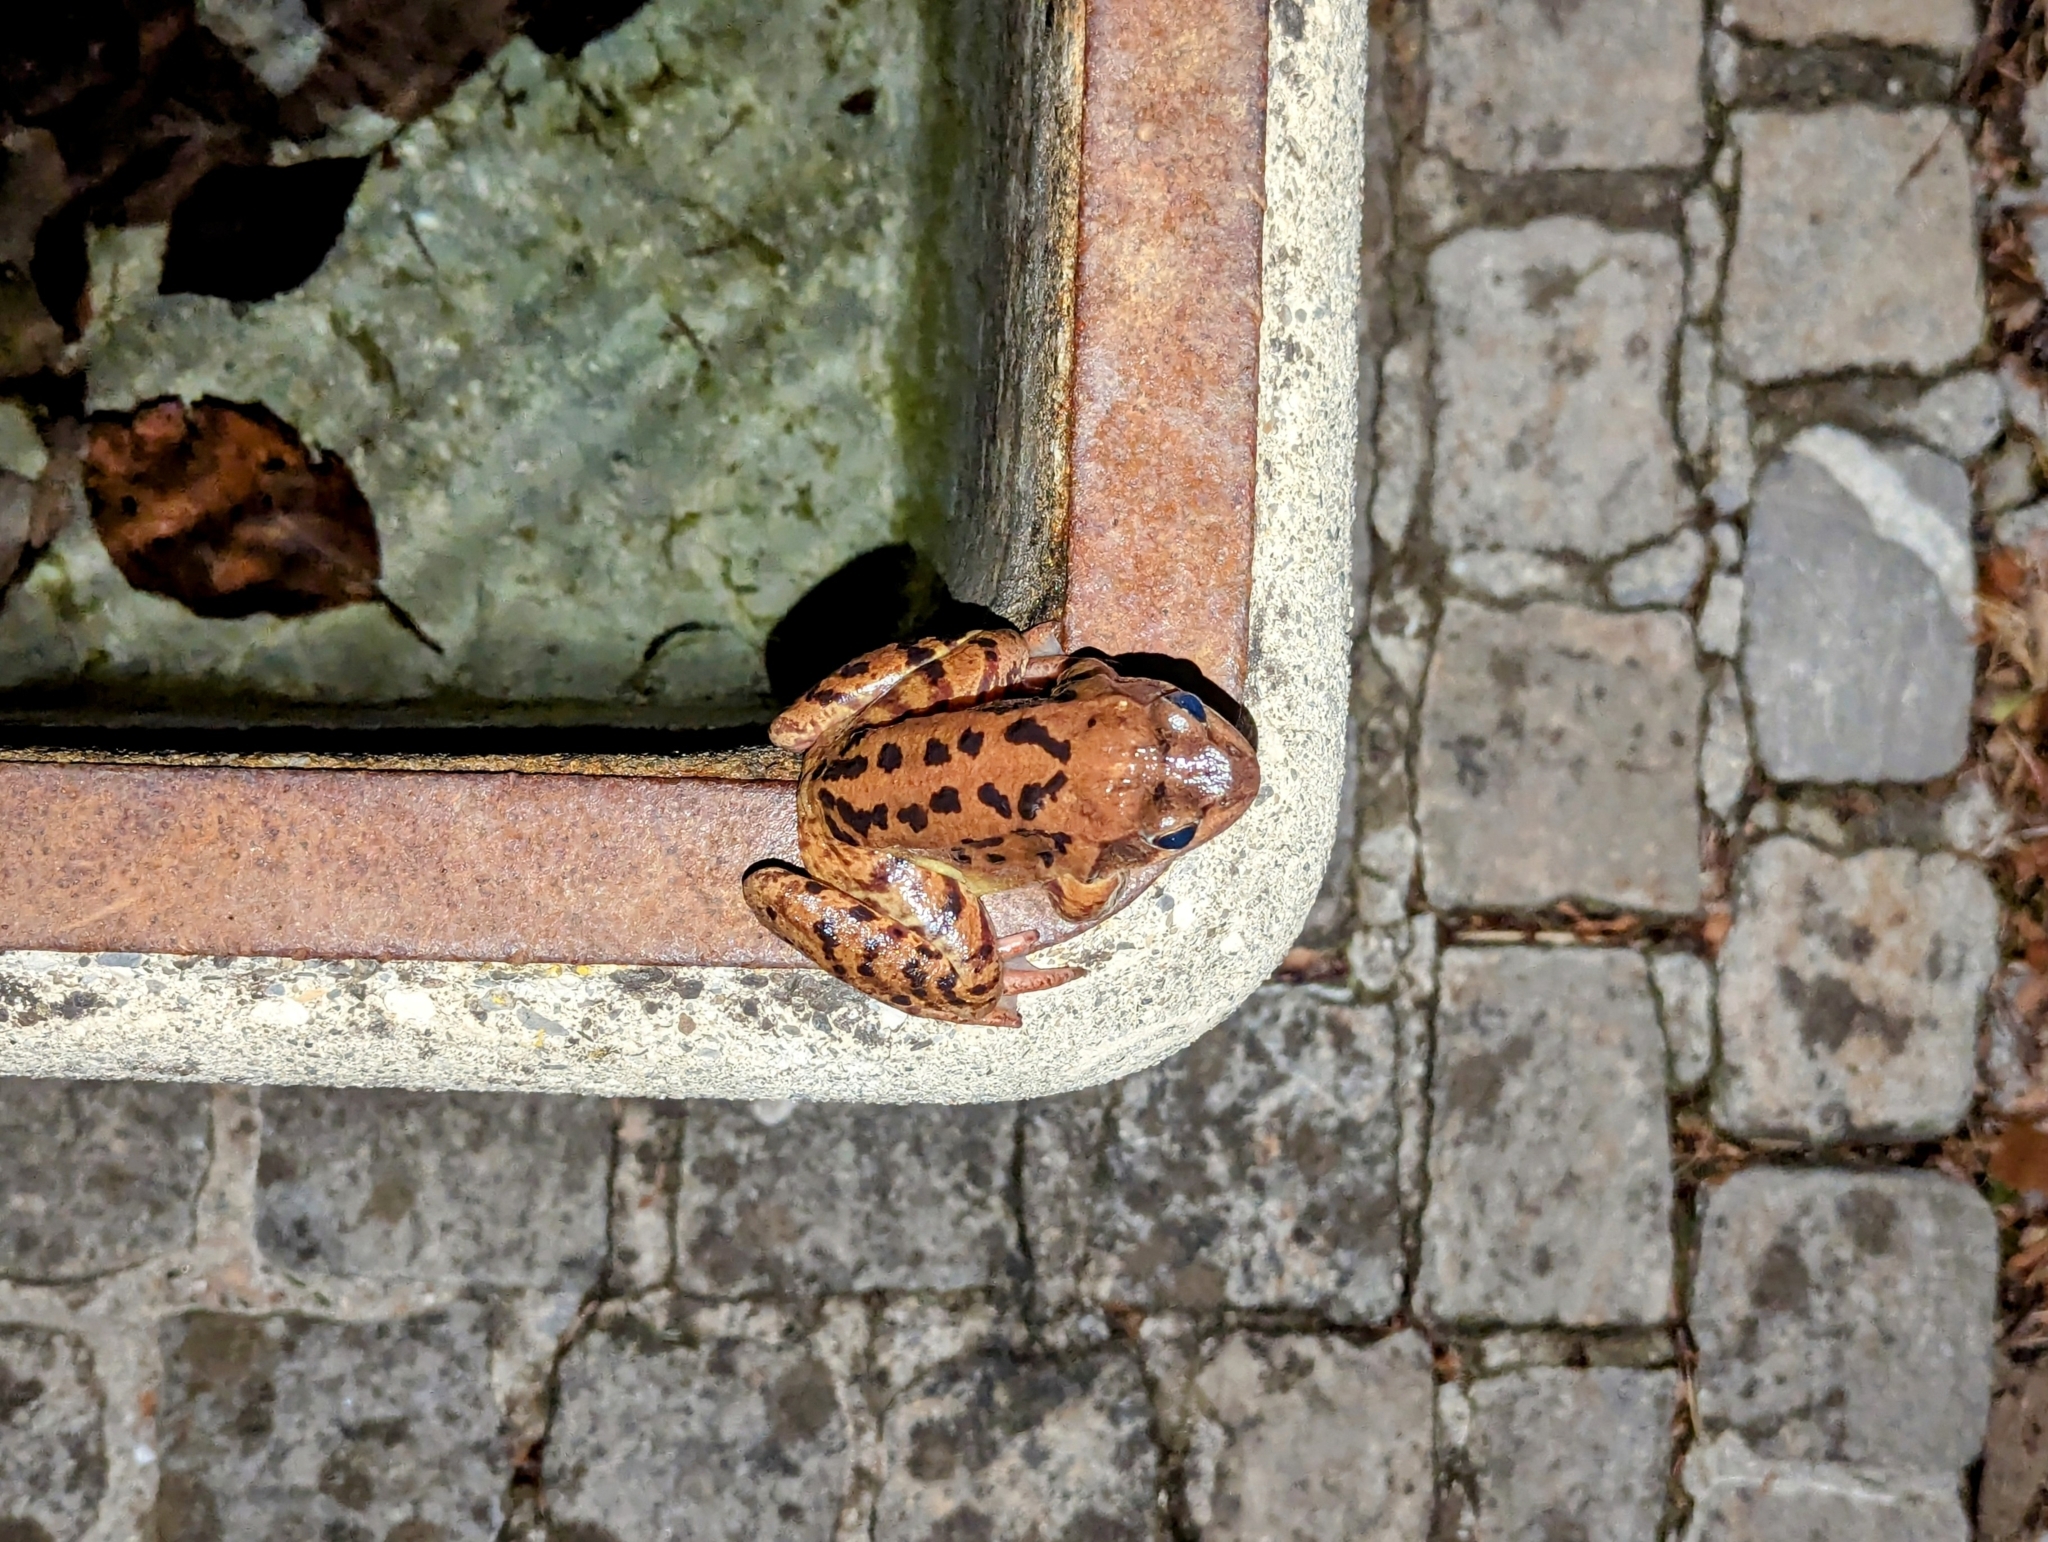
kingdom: Animalia
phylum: Chordata
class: Amphibia
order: Anura
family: Ranidae
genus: Rana
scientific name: Rana temporaria
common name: Common frog
